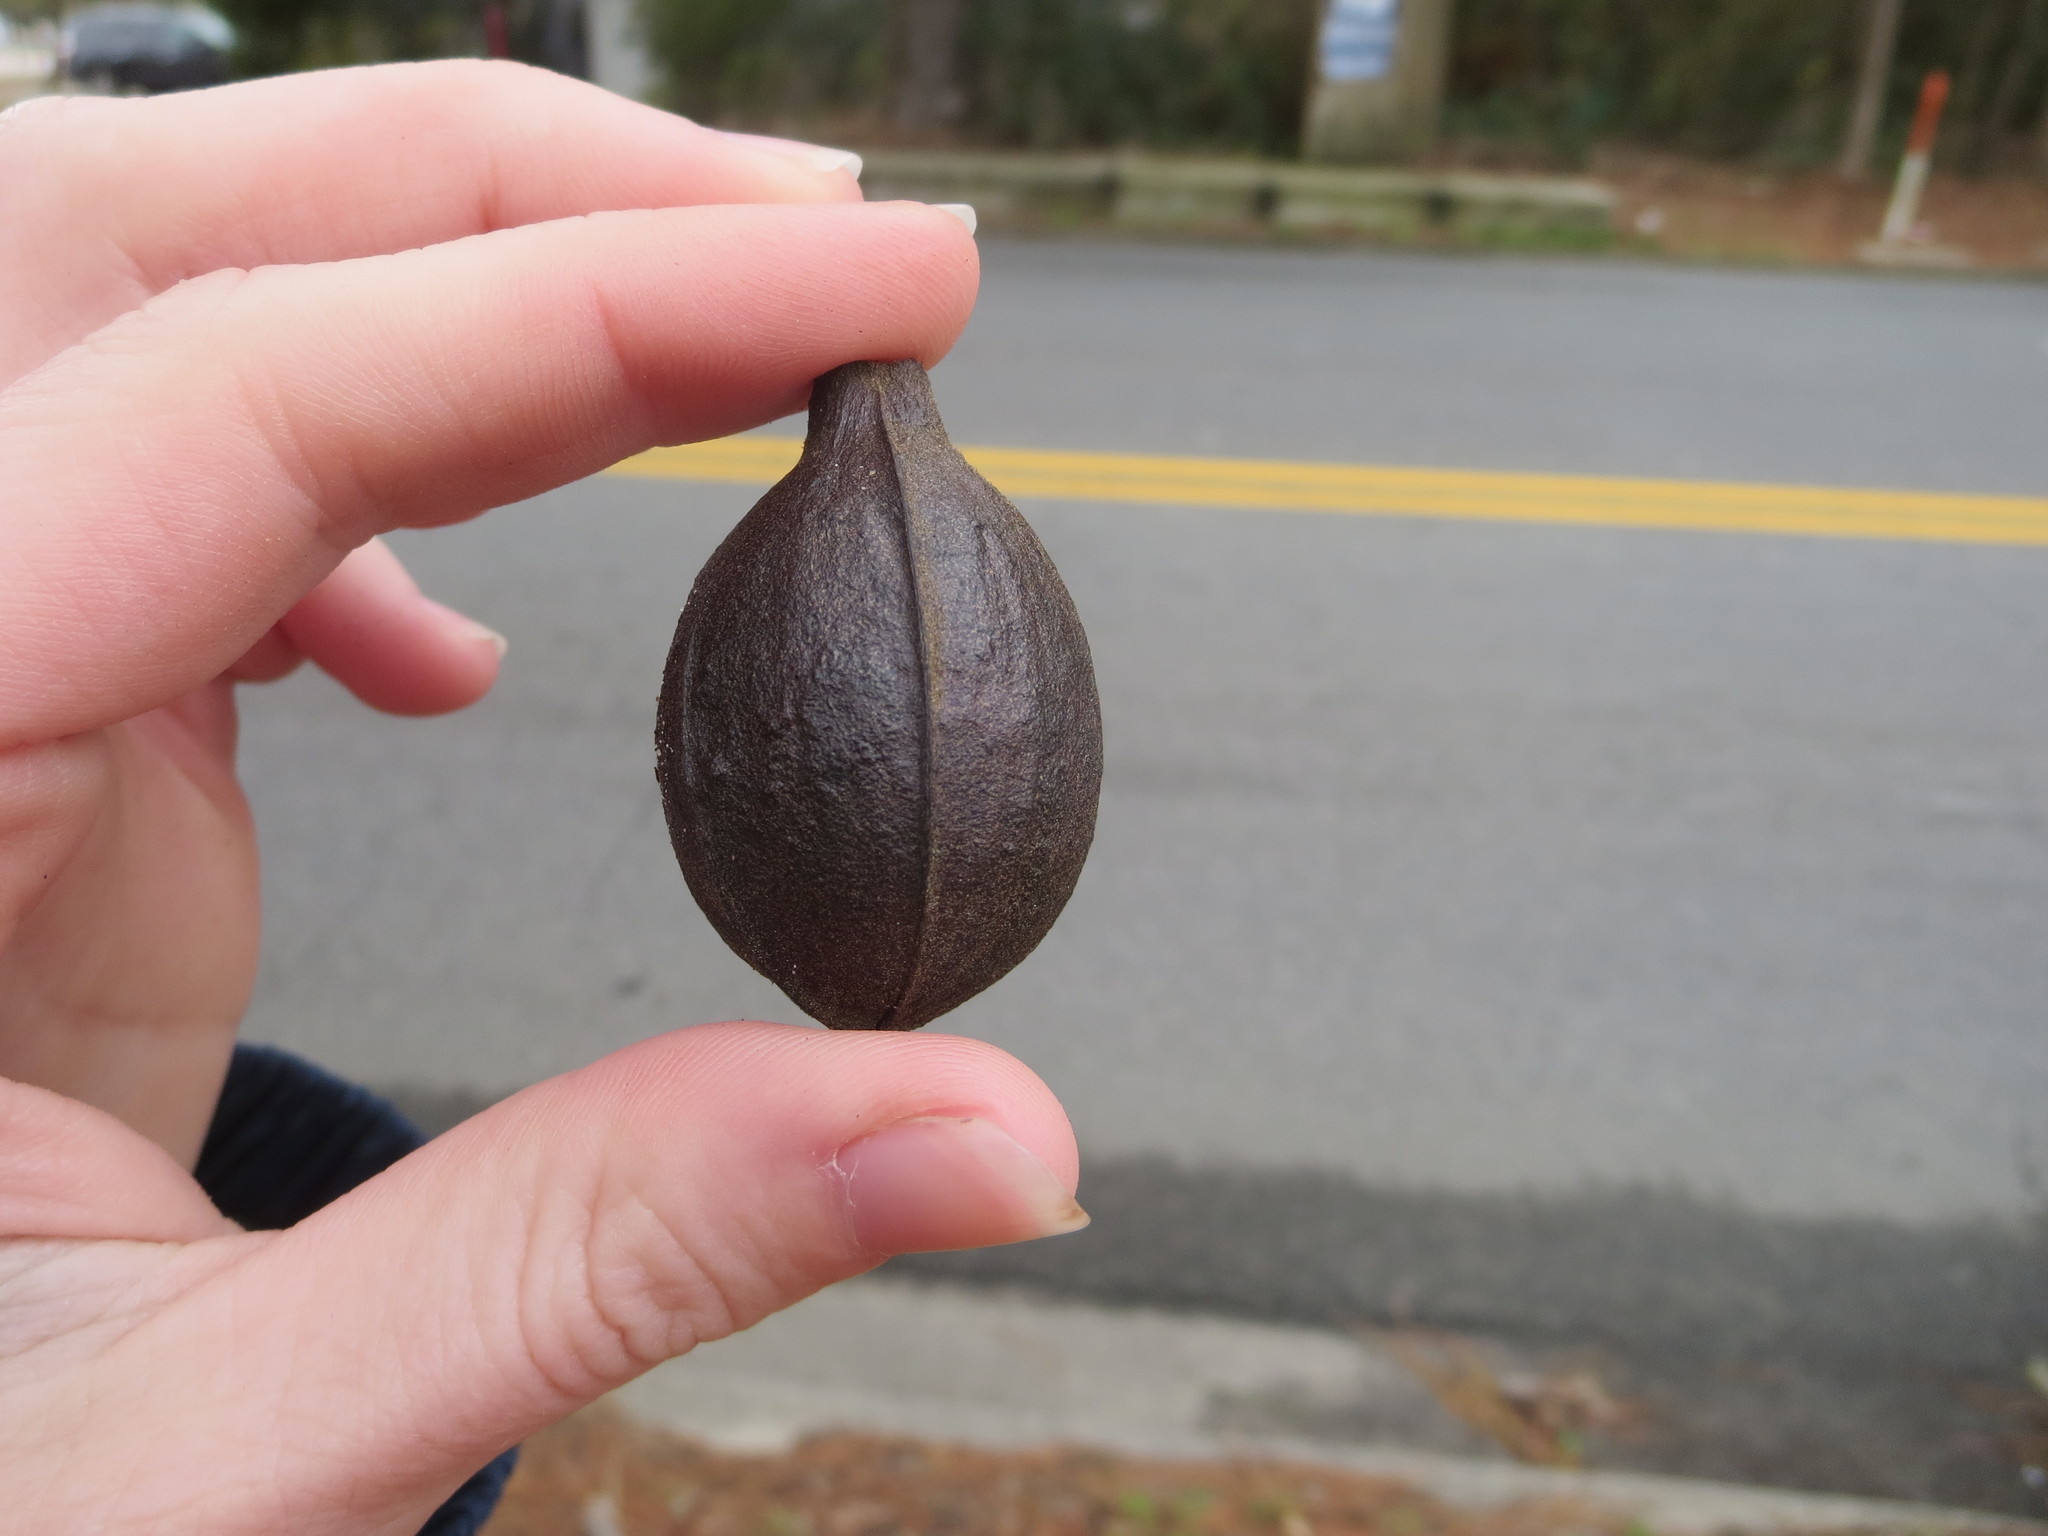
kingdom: Plantae
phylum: Tracheophyta
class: Magnoliopsida
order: Fagales
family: Juglandaceae
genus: Carya
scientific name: Carya glabra
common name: Pignut hickory
